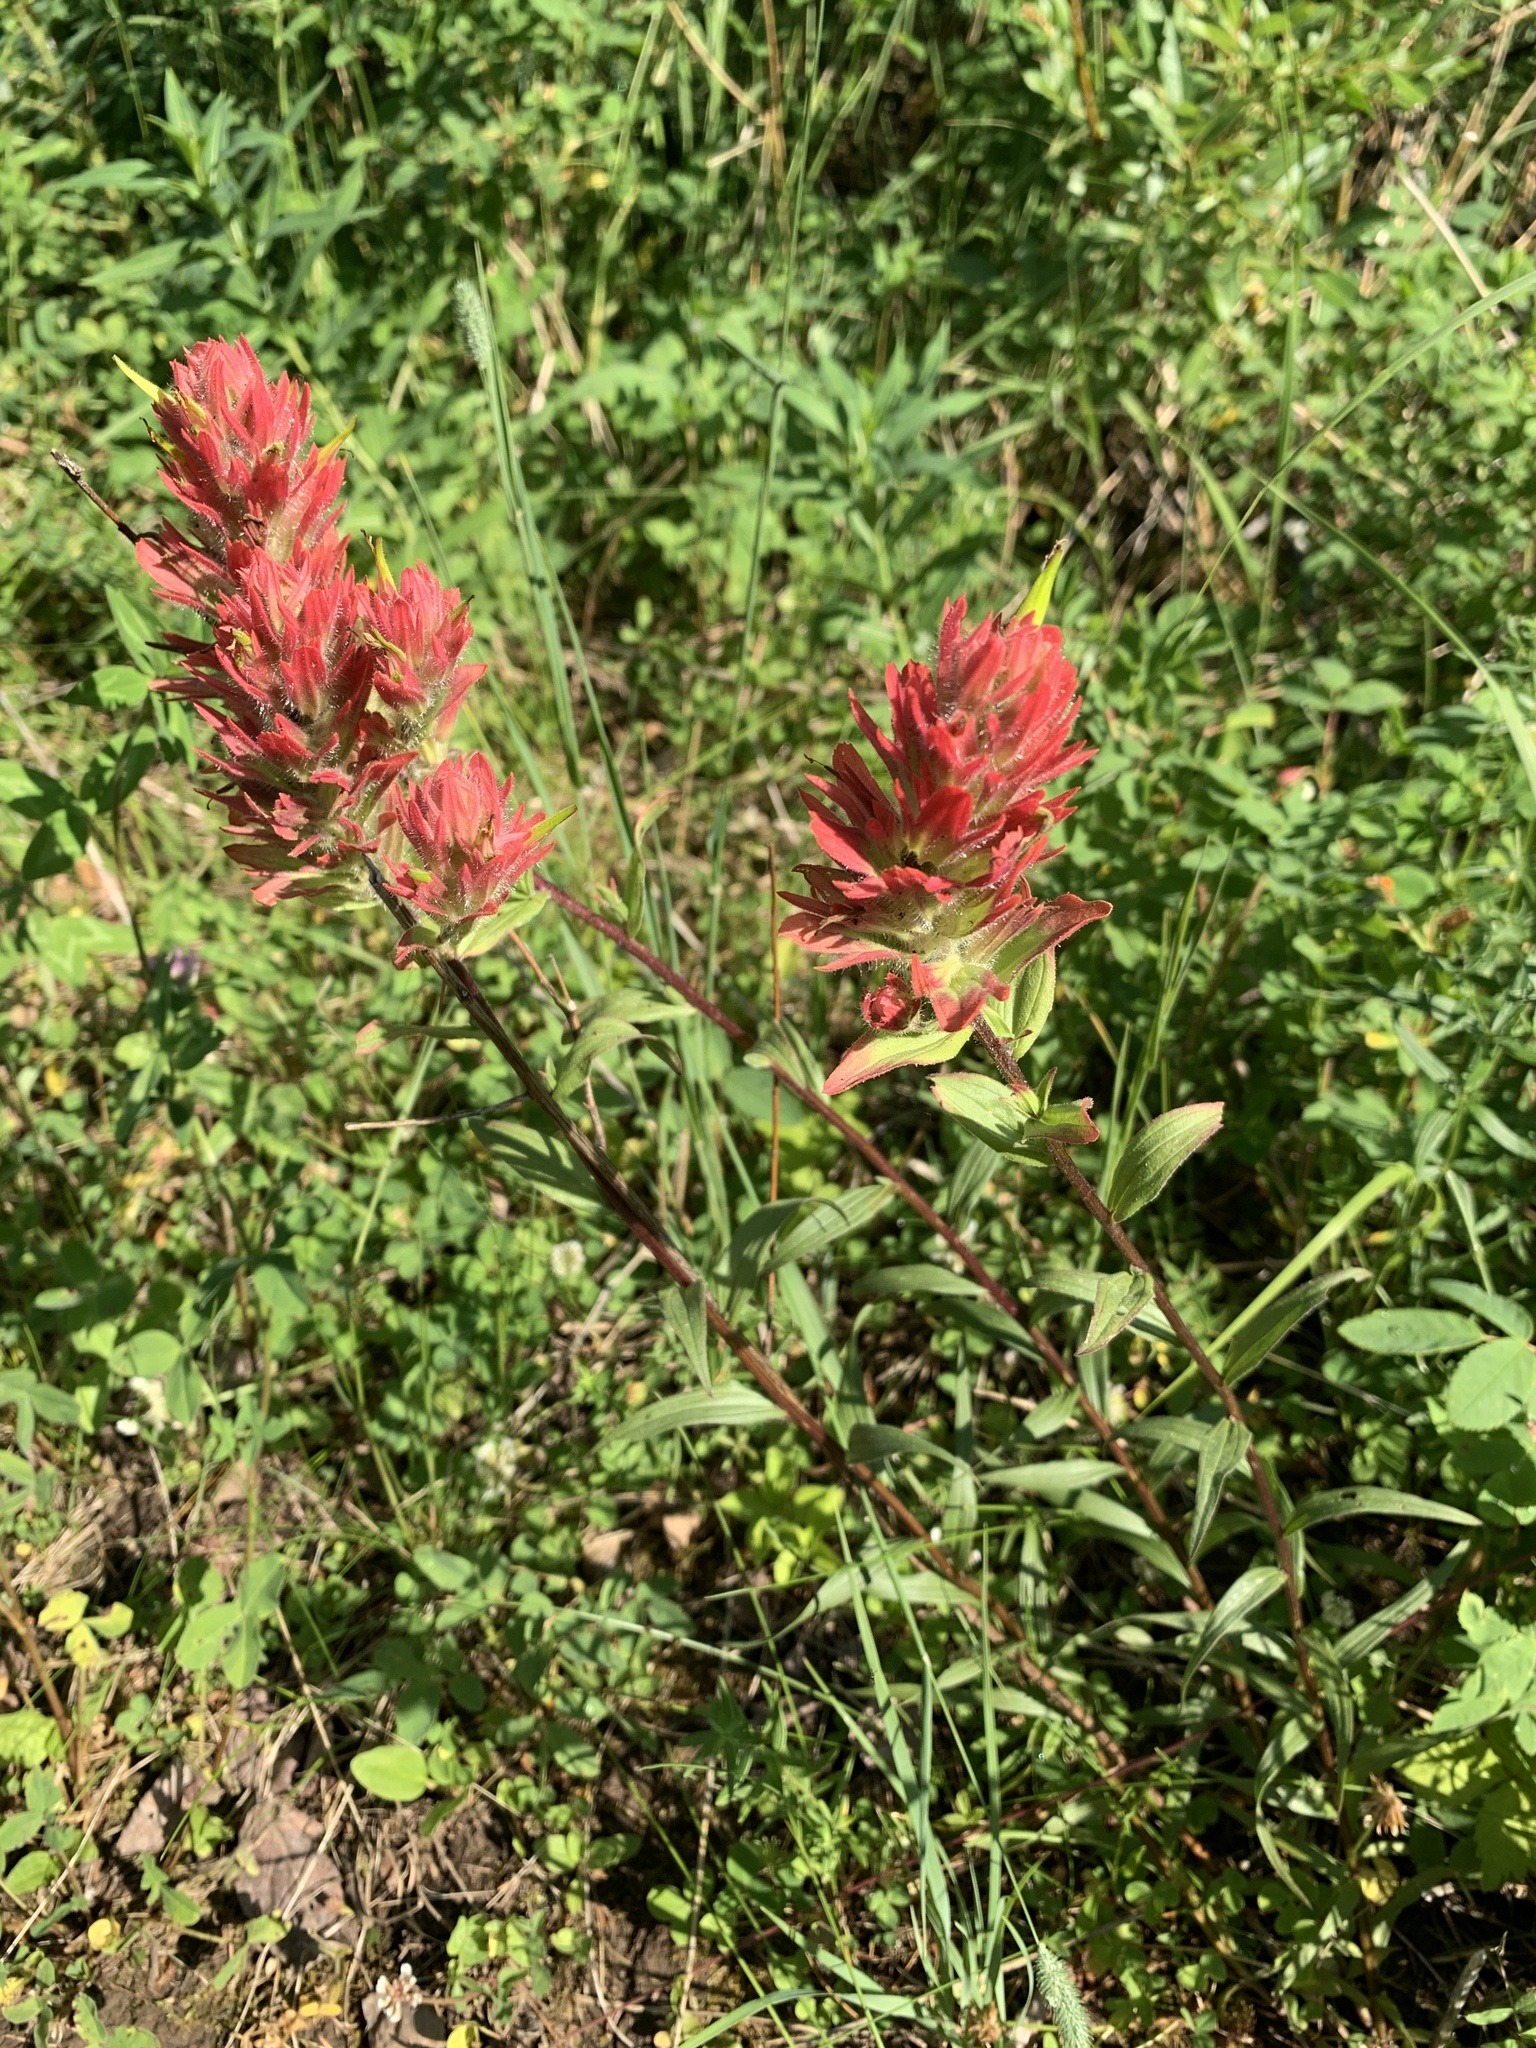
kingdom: Plantae
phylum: Tracheophyta
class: Magnoliopsida
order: Lamiales
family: Orobanchaceae
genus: Castilleja
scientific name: Castilleja miniata
